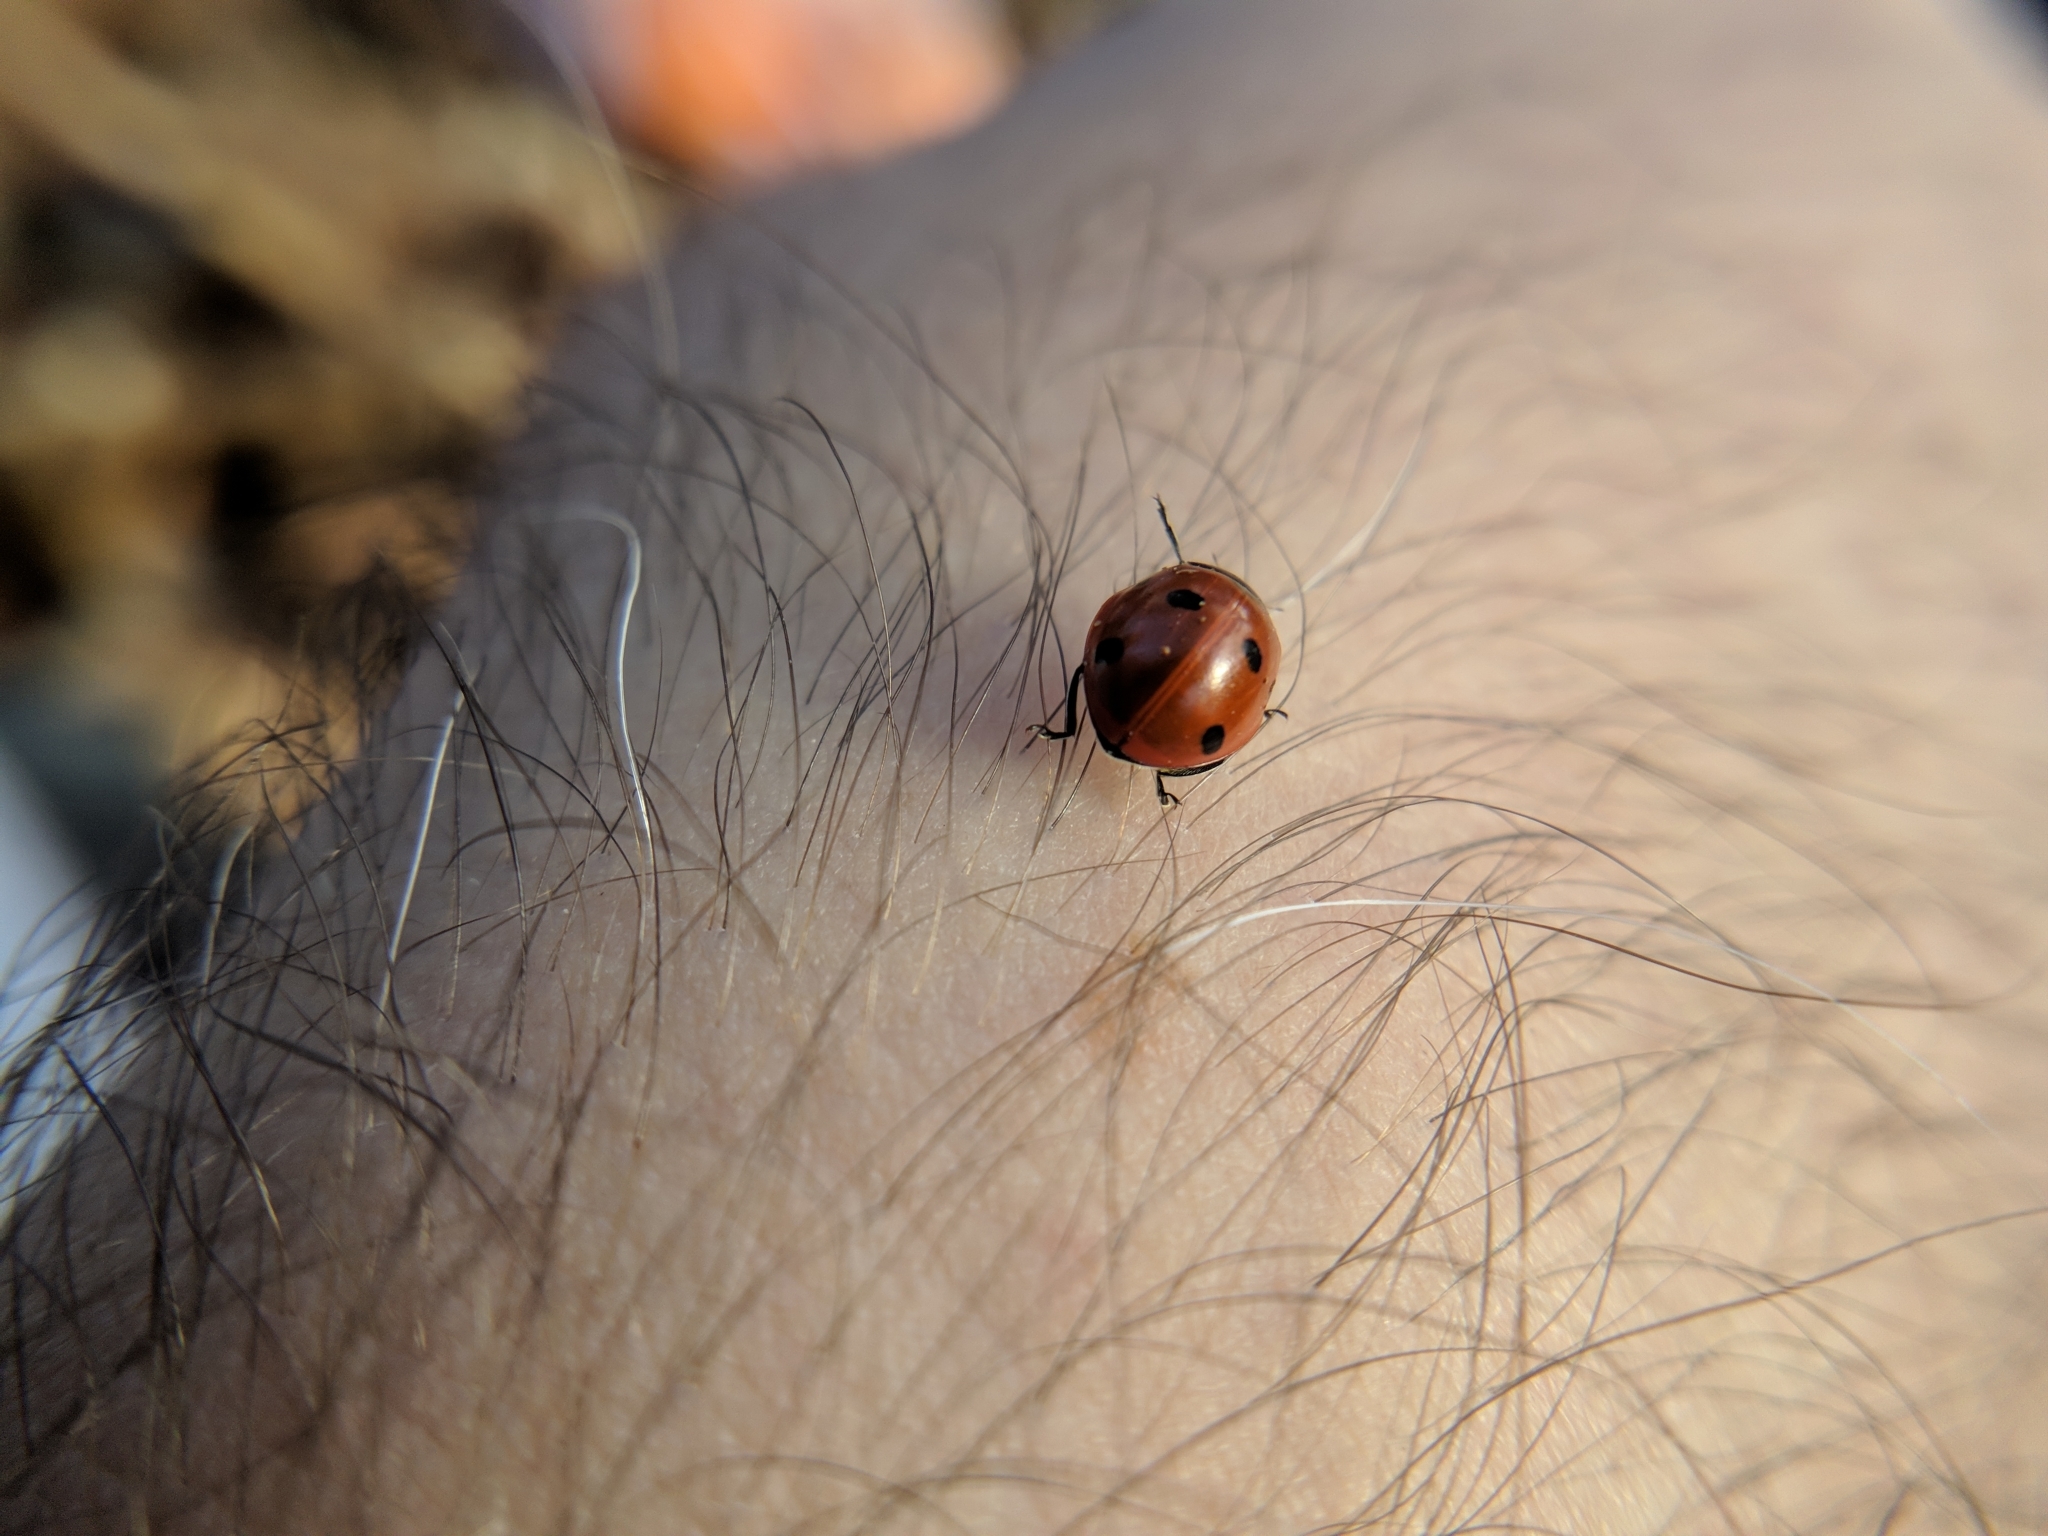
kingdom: Animalia
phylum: Arthropoda
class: Insecta
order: Coleoptera
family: Coccinellidae
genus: Coccinella
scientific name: Coccinella septempunctata
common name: Sevenspotted lady beetle
